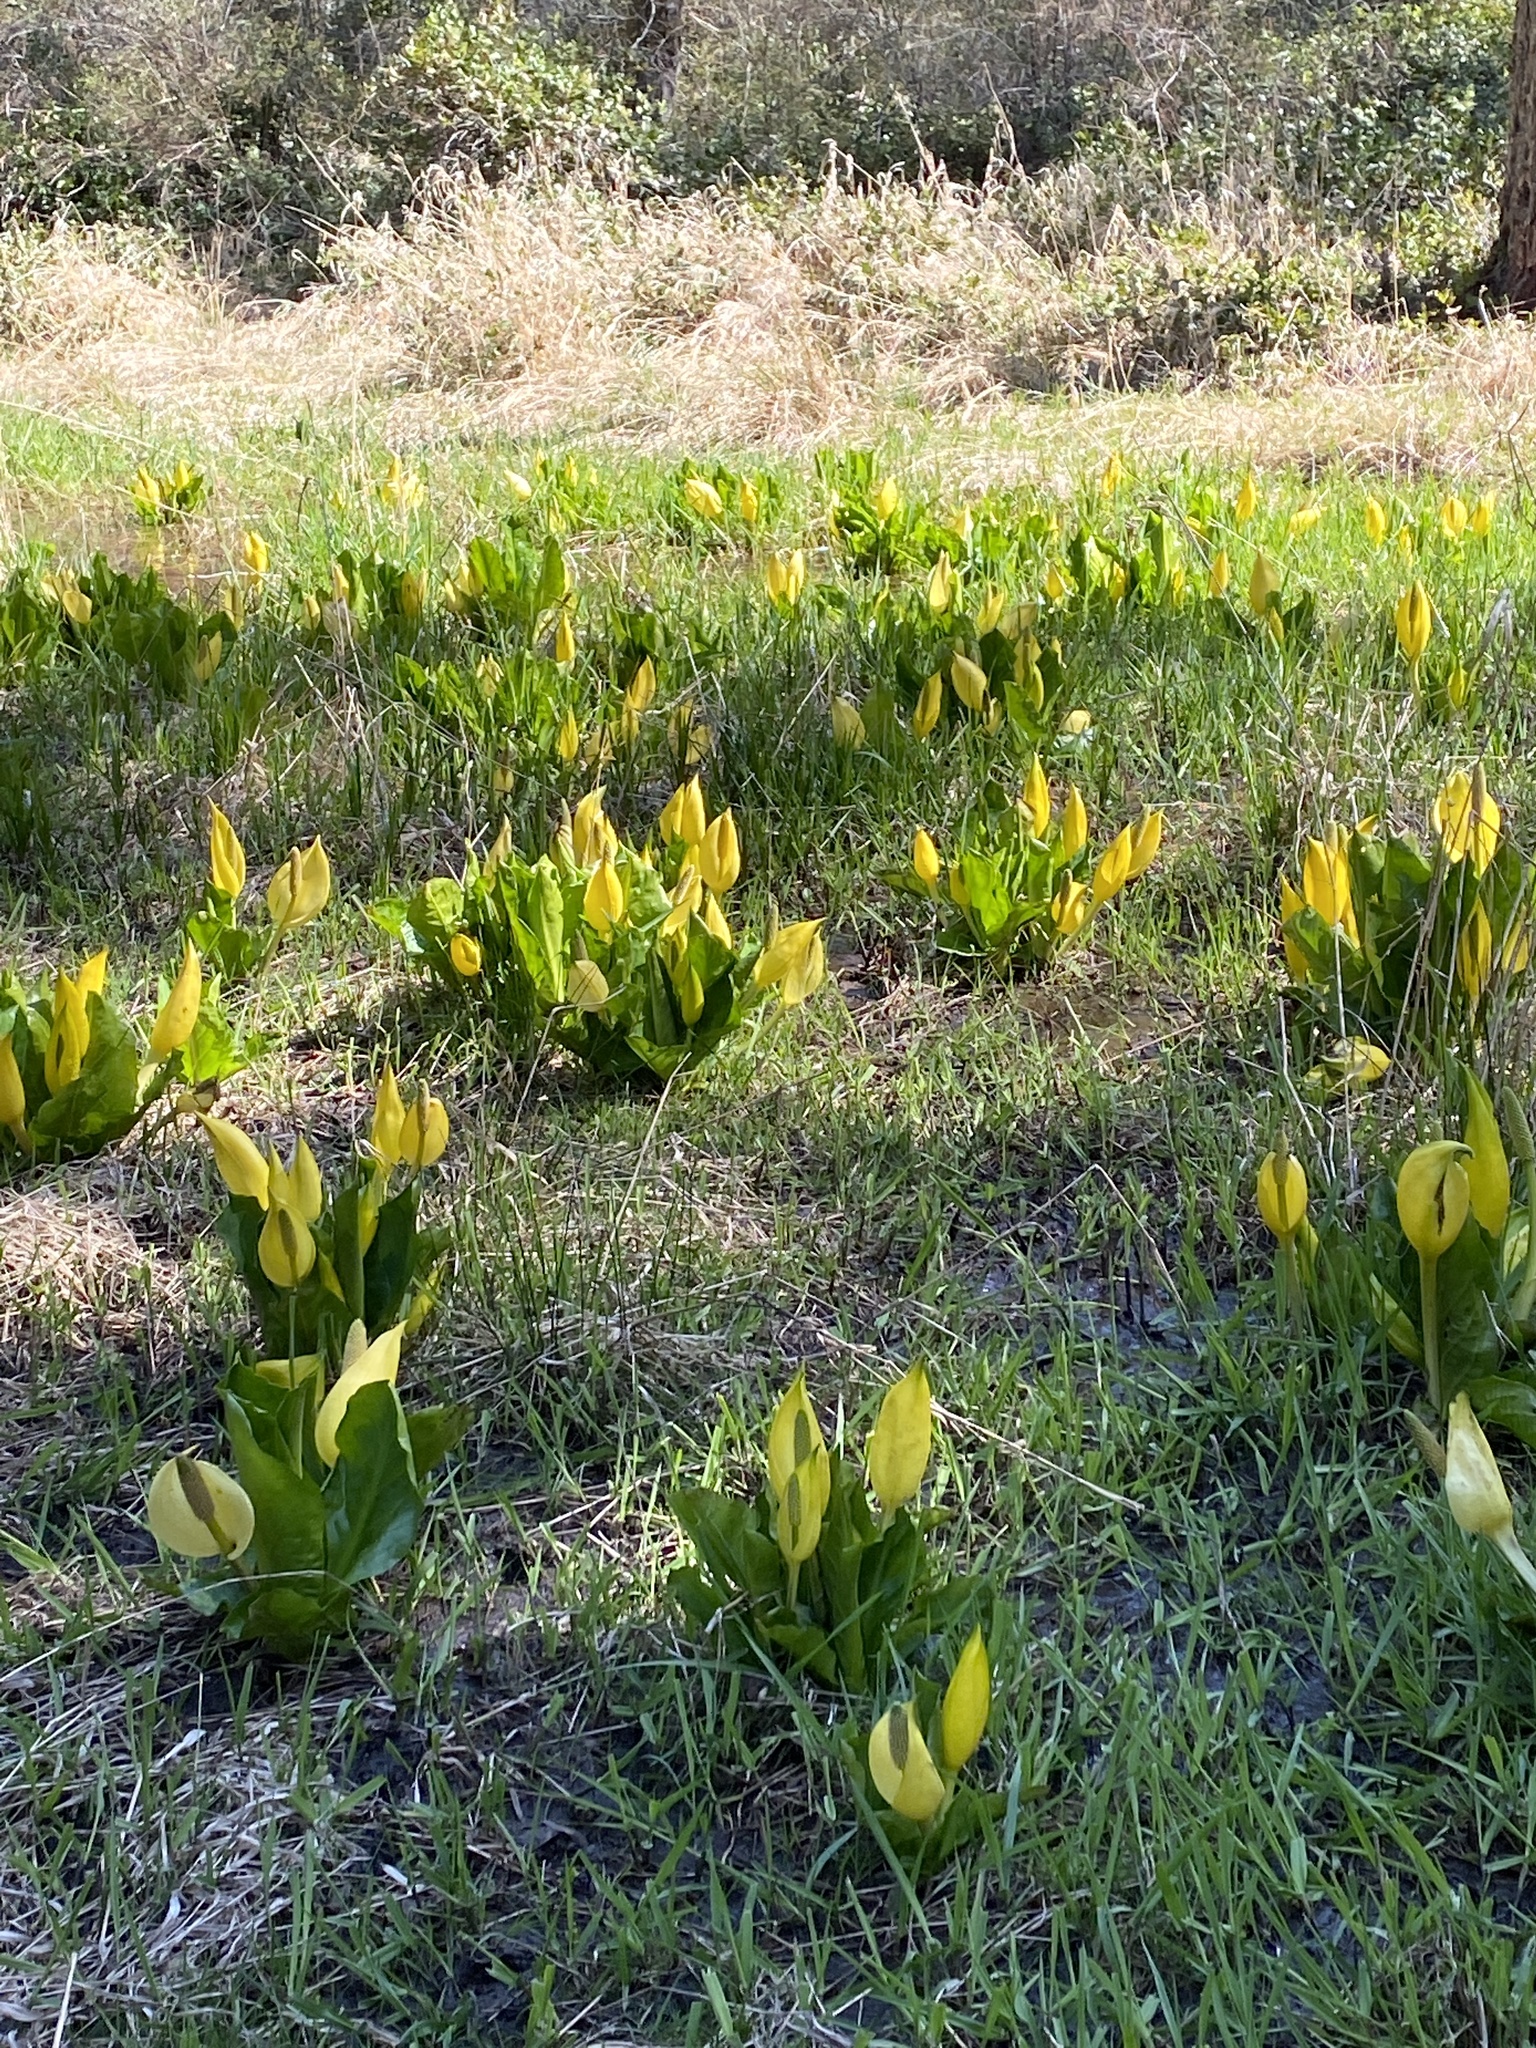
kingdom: Plantae
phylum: Tracheophyta
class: Liliopsida
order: Alismatales
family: Araceae
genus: Lysichiton
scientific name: Lysichiton americanus
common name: American skunk cabbage
